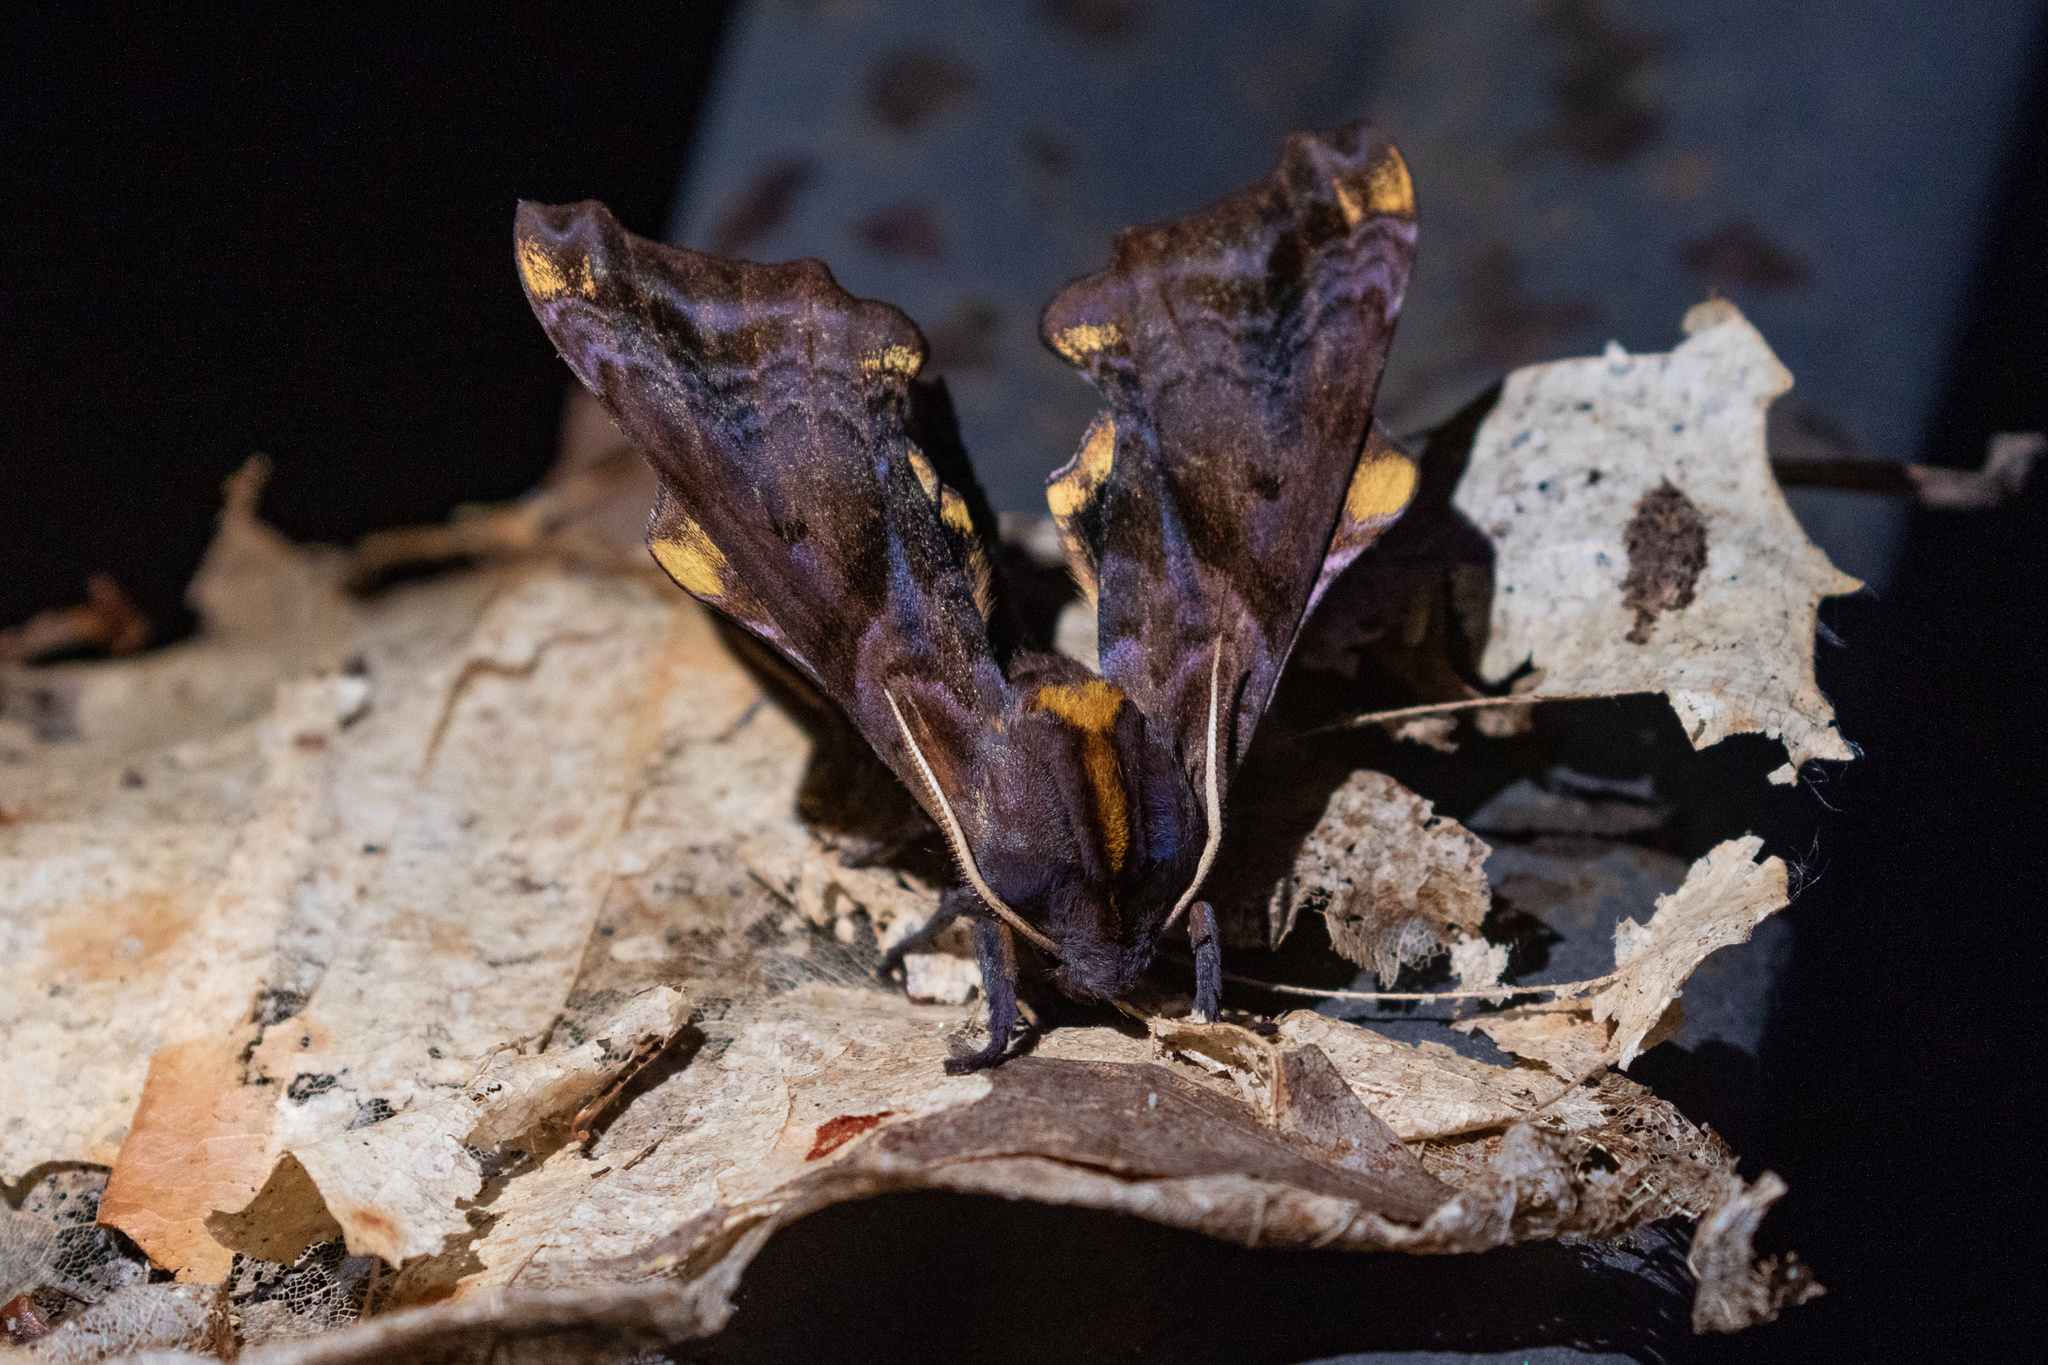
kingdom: Animalia
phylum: Arthropoda
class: Insecta
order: Lepidoptera
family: Sphingidae
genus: Paonias
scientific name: Paonias myops
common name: Small-eyed sphinx
